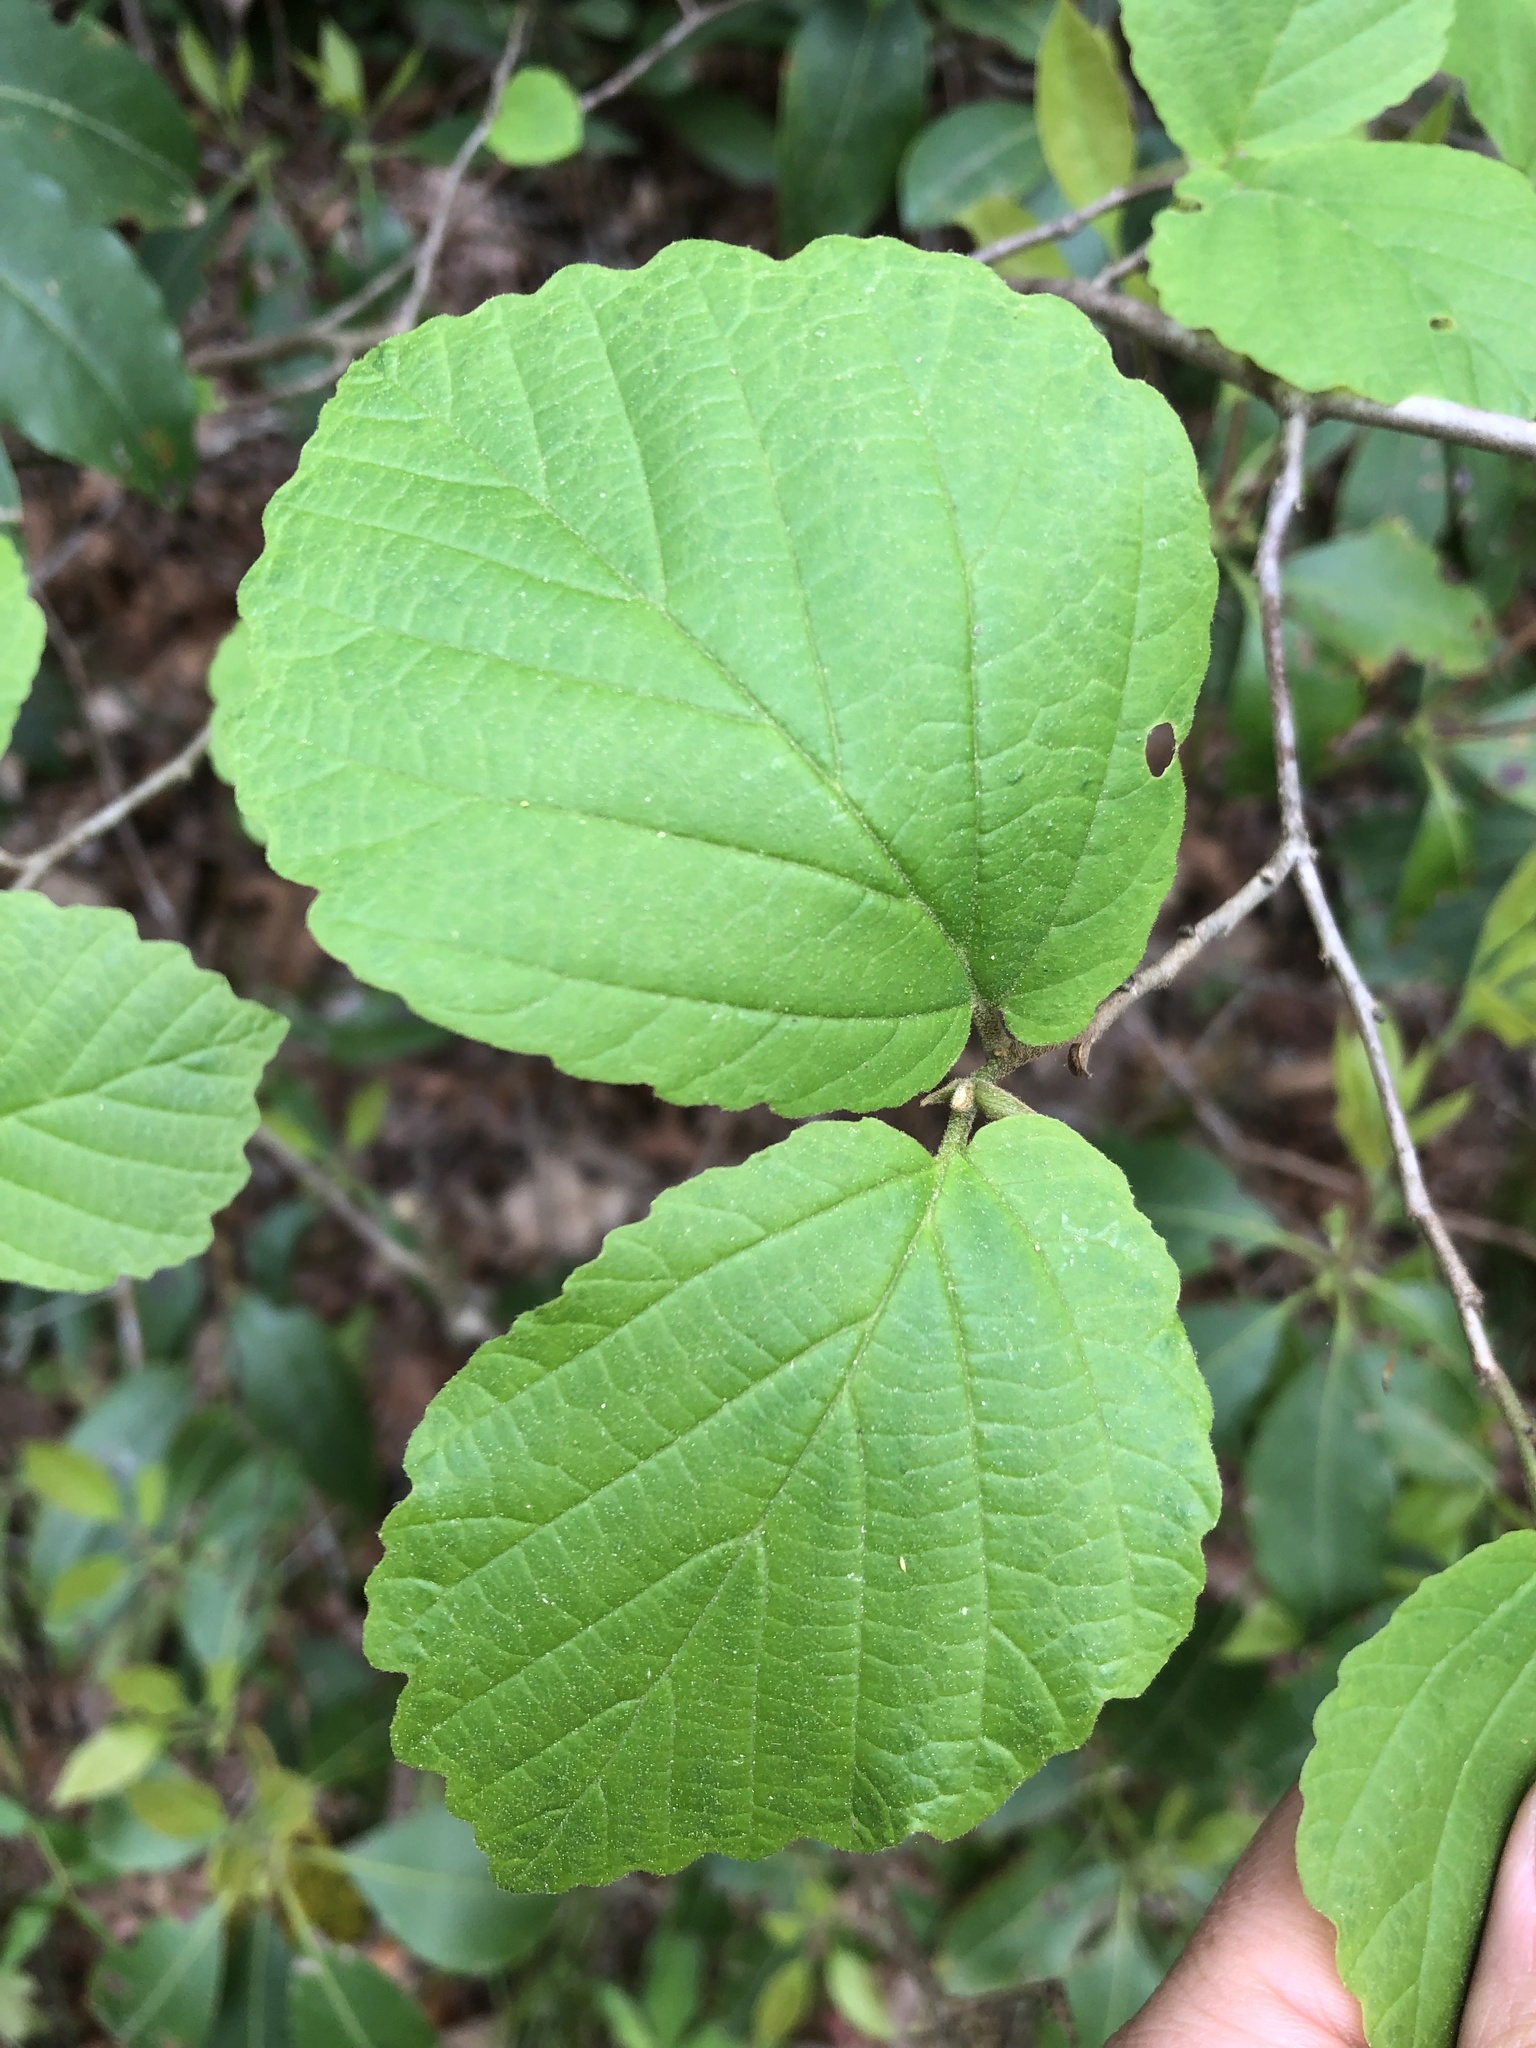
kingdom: Plantae
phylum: Tracheophyta
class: Magnoliopsida
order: Saxifragales
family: Hamamelidaceae
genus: Hamamelis
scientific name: Hamamelis virginiana
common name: Witch-hazel
